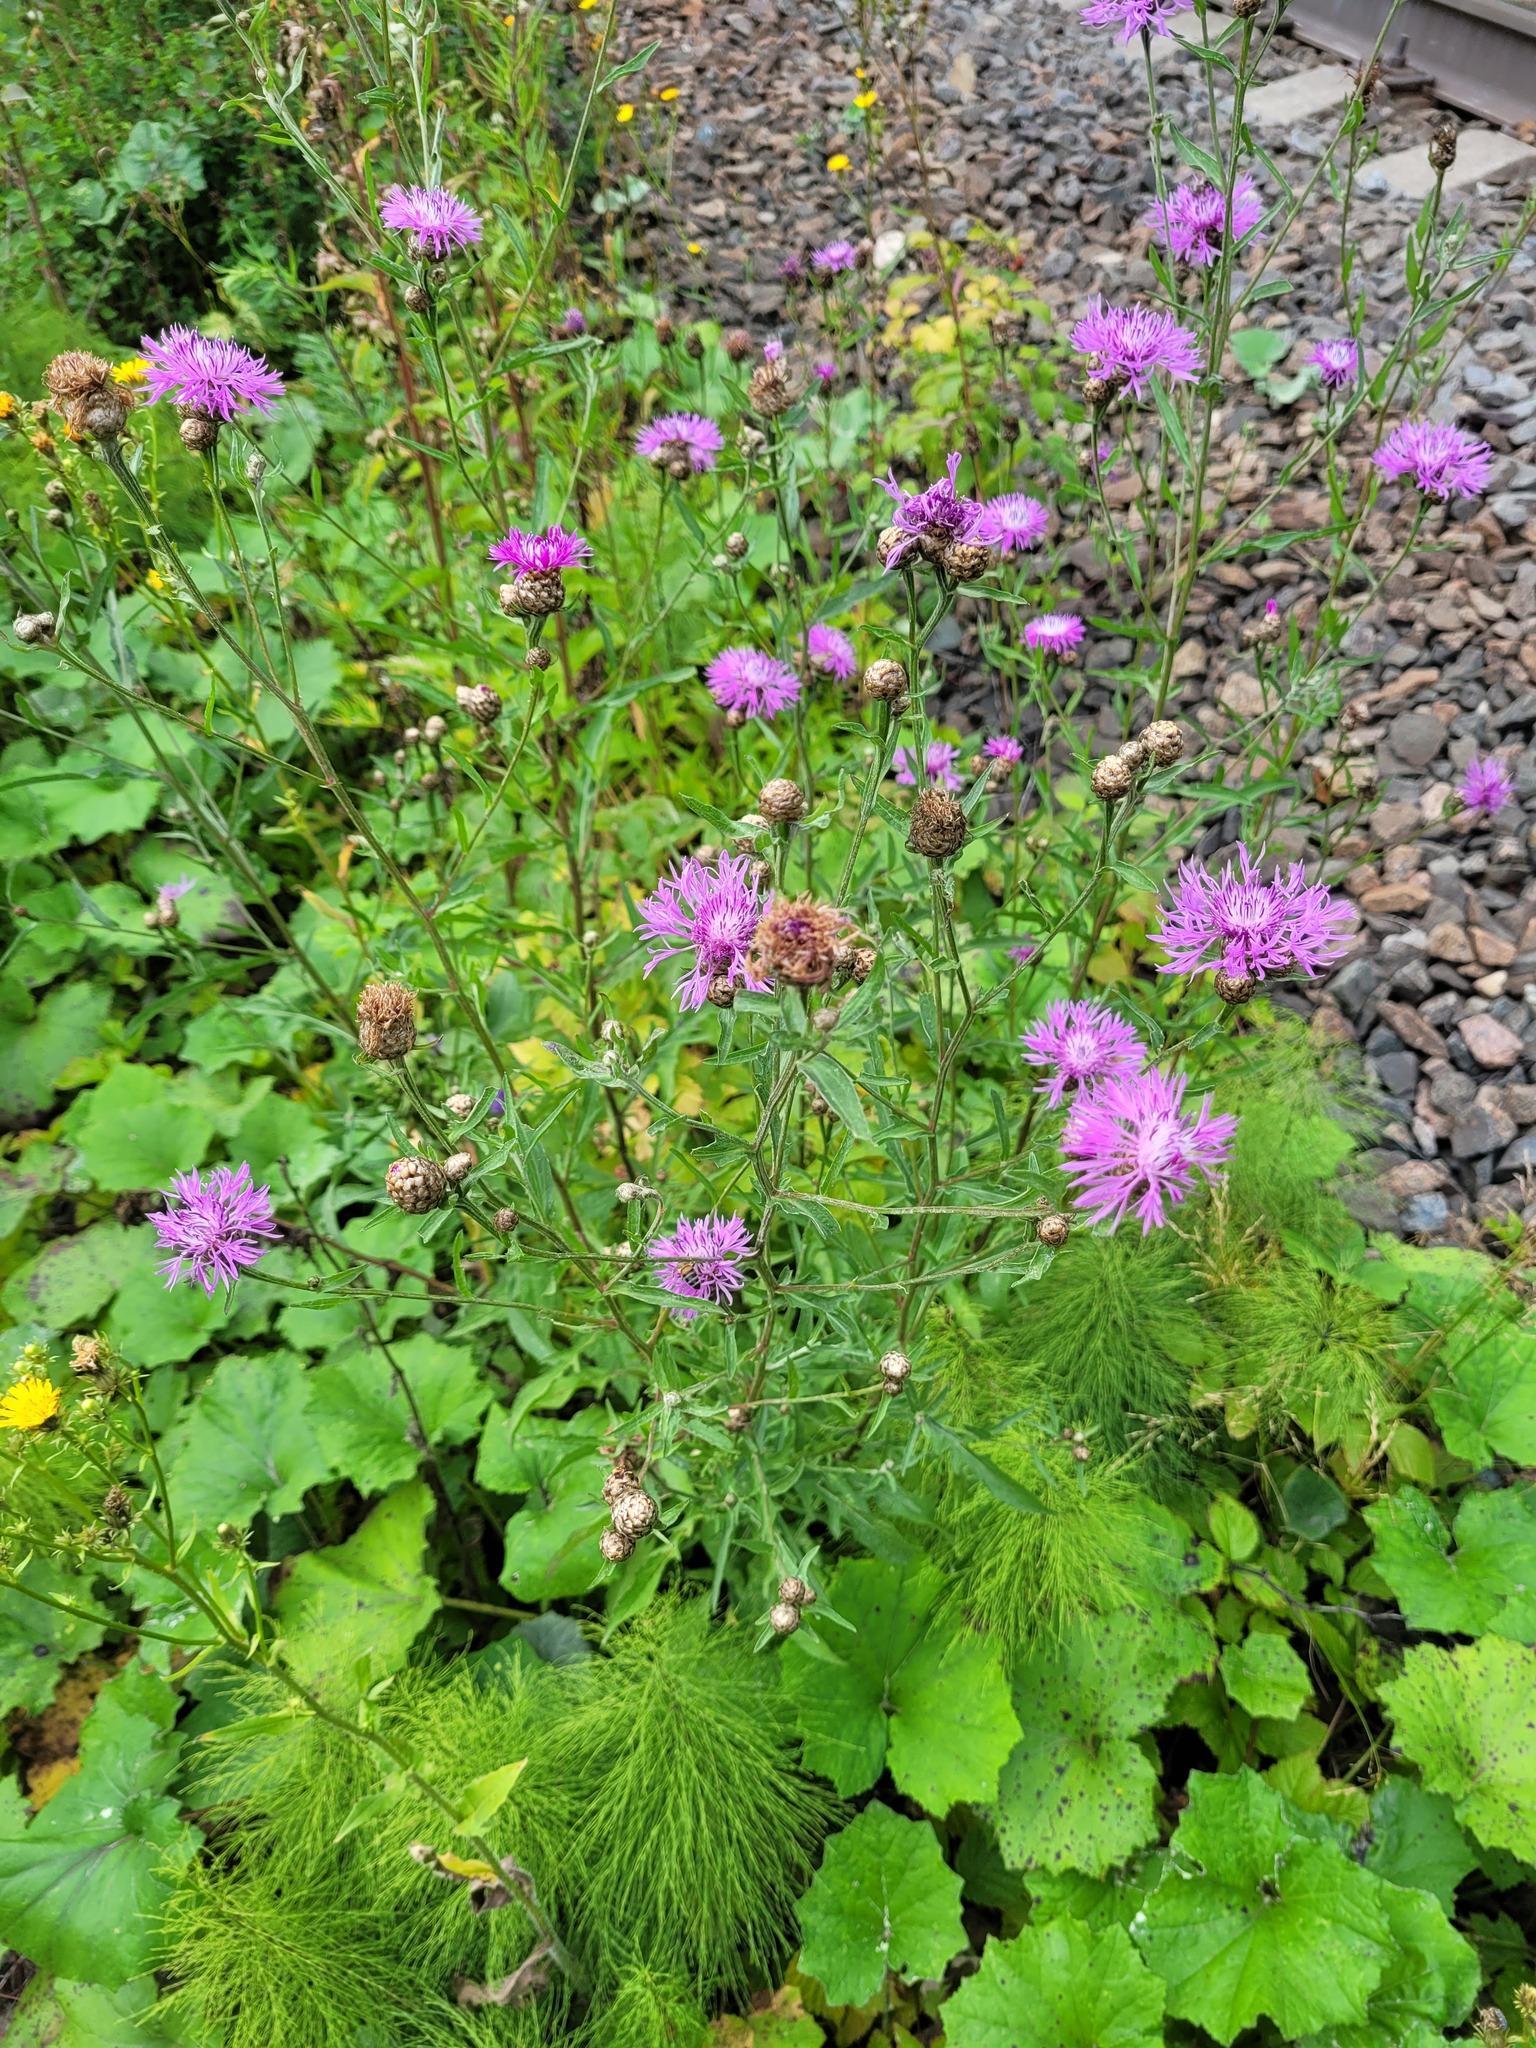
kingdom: Plantae
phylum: Tracheophyta
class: Magnoliopsida
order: Asterales
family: Asteraceae
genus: Centaurea
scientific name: Centaurea jacea
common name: Brown knapweed
